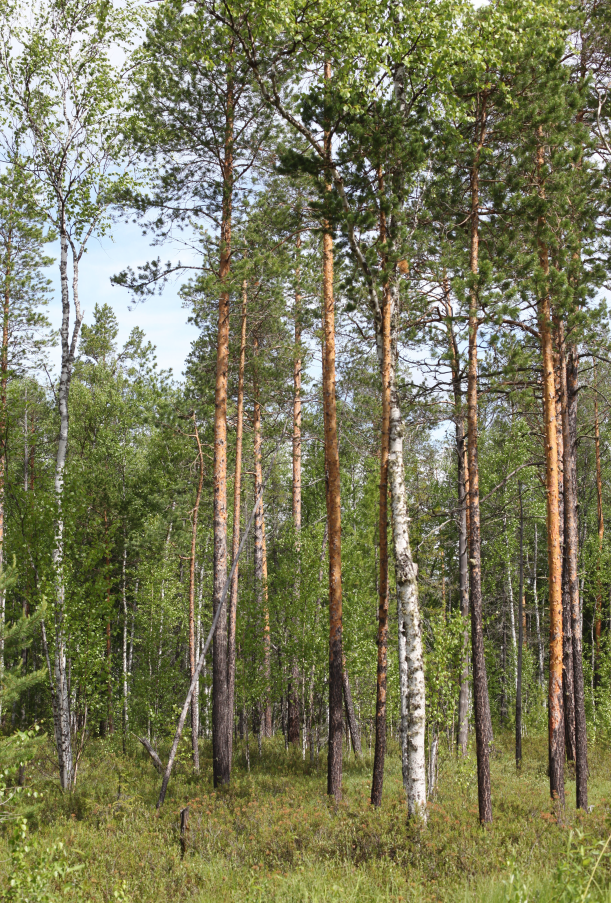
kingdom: Plantae
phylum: Tracheophyta
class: Pinopsida
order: Pinales
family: Pinaceae
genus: Pinus
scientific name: Pinus sylvestris
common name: Scots pine
